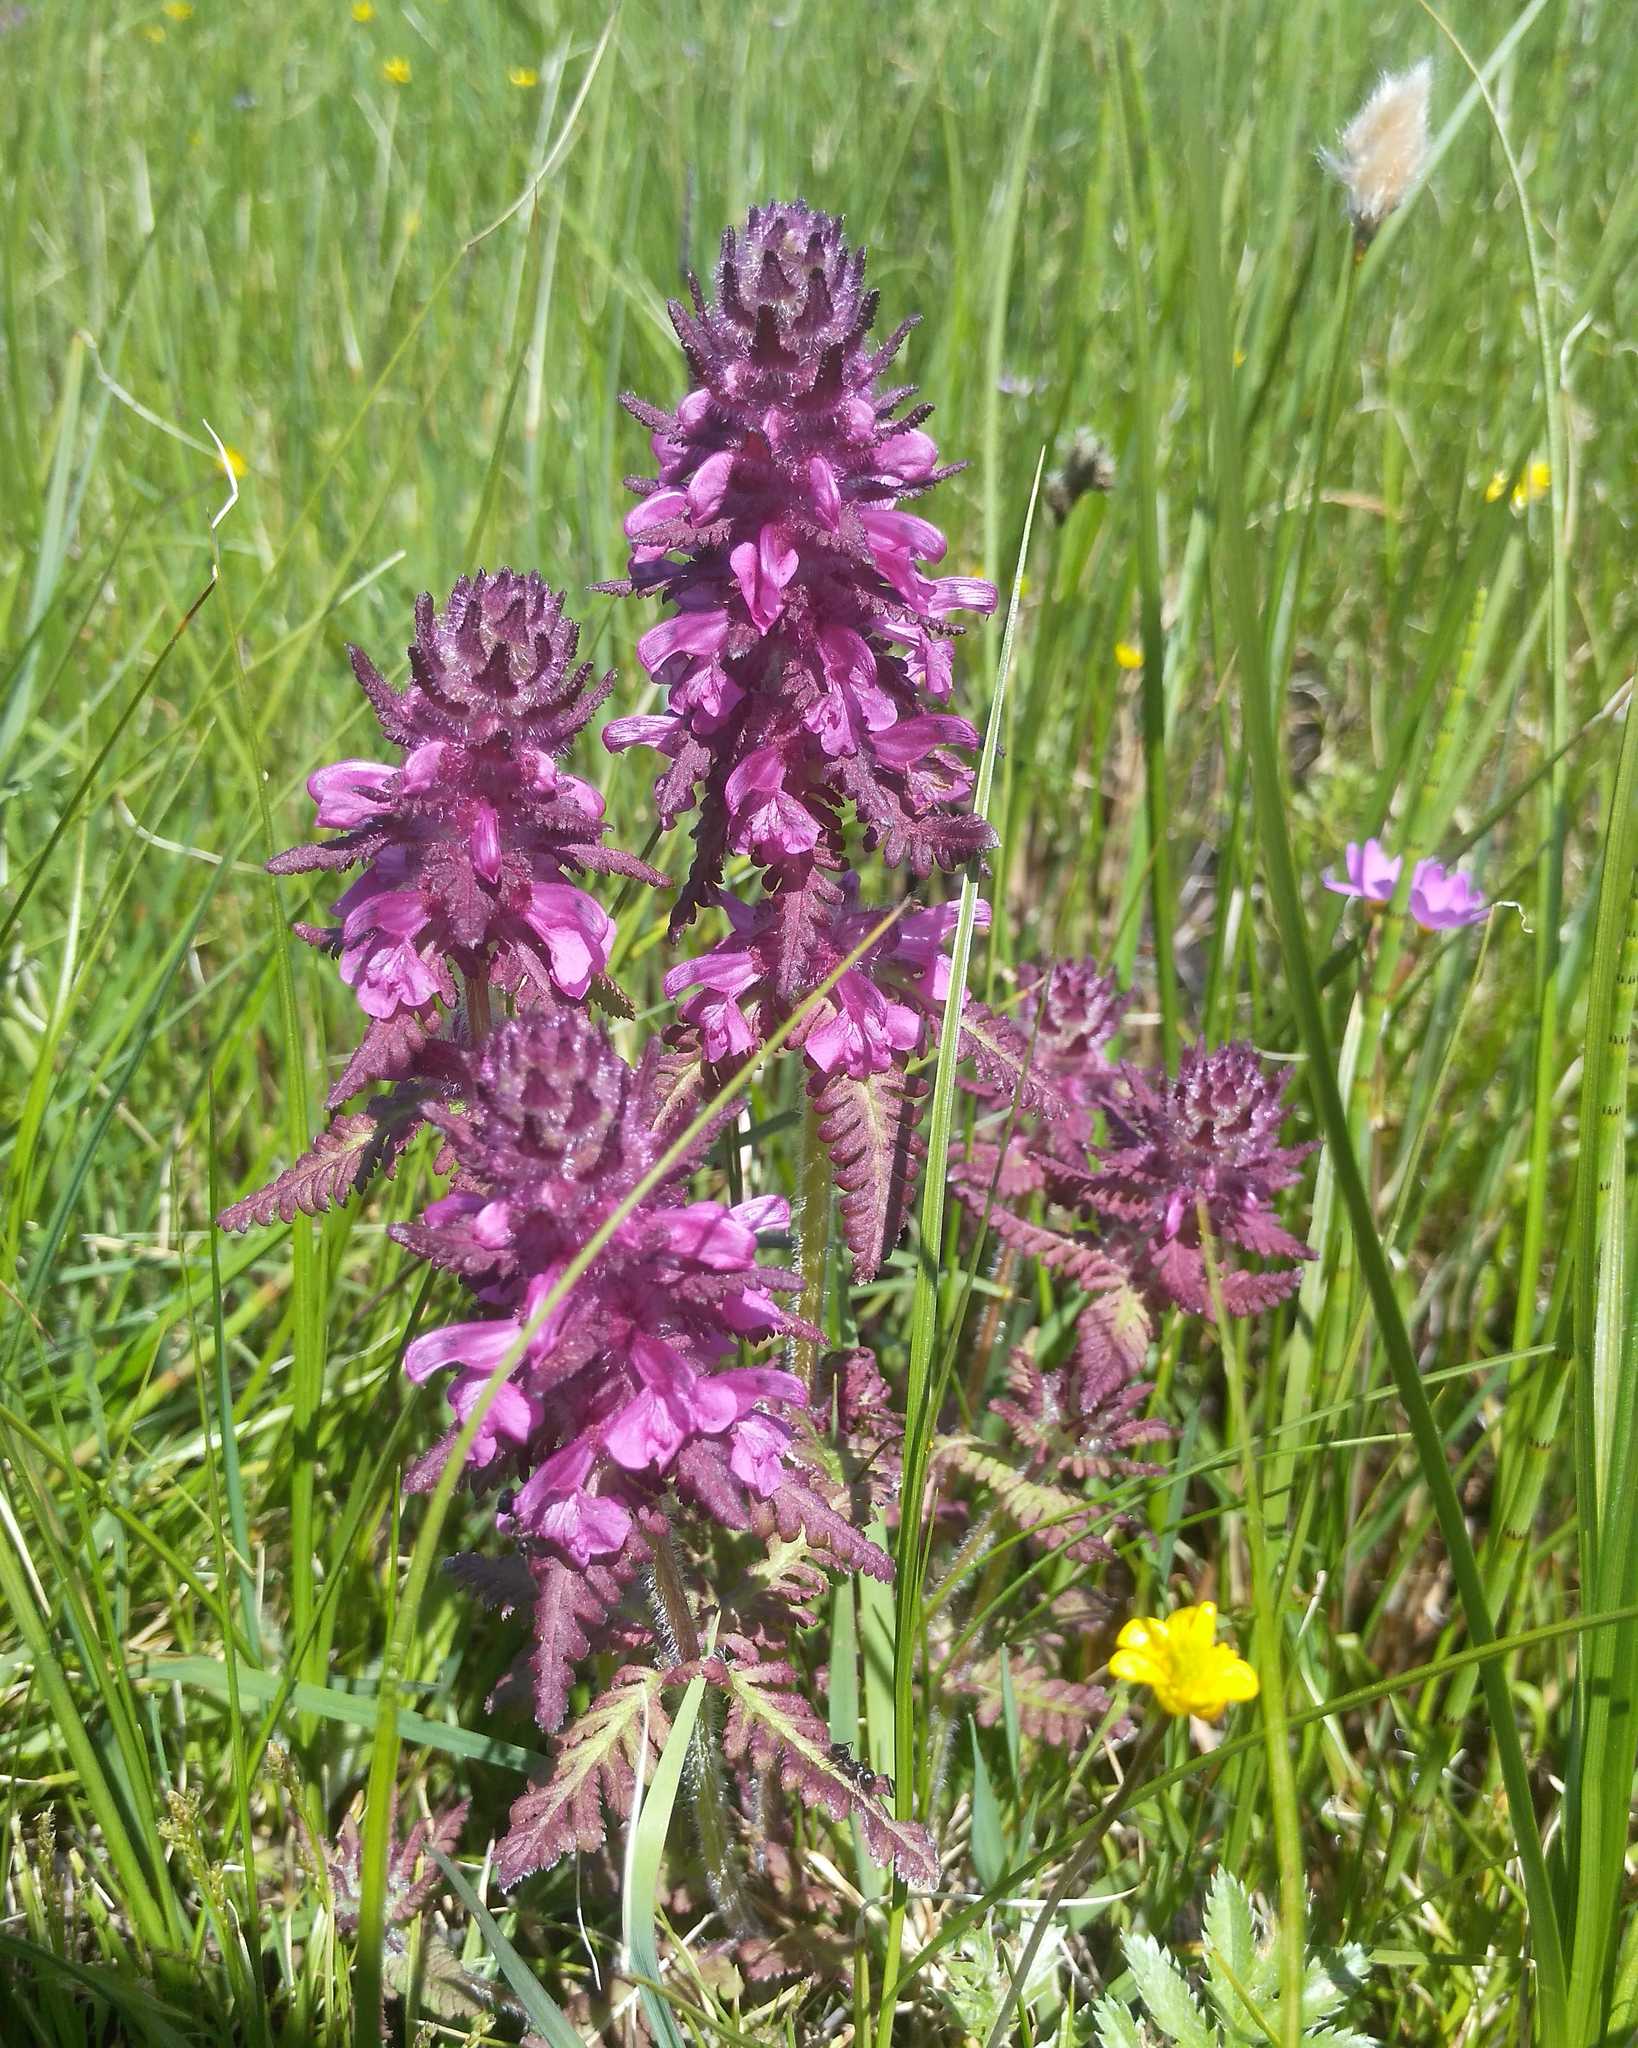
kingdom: Plantae
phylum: Tracheophyta
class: Magnoliopsida
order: Lamiales
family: Orobanchaceae
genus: Pedicularis
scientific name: Pedicularis verticillata
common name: Whorled lousewort
